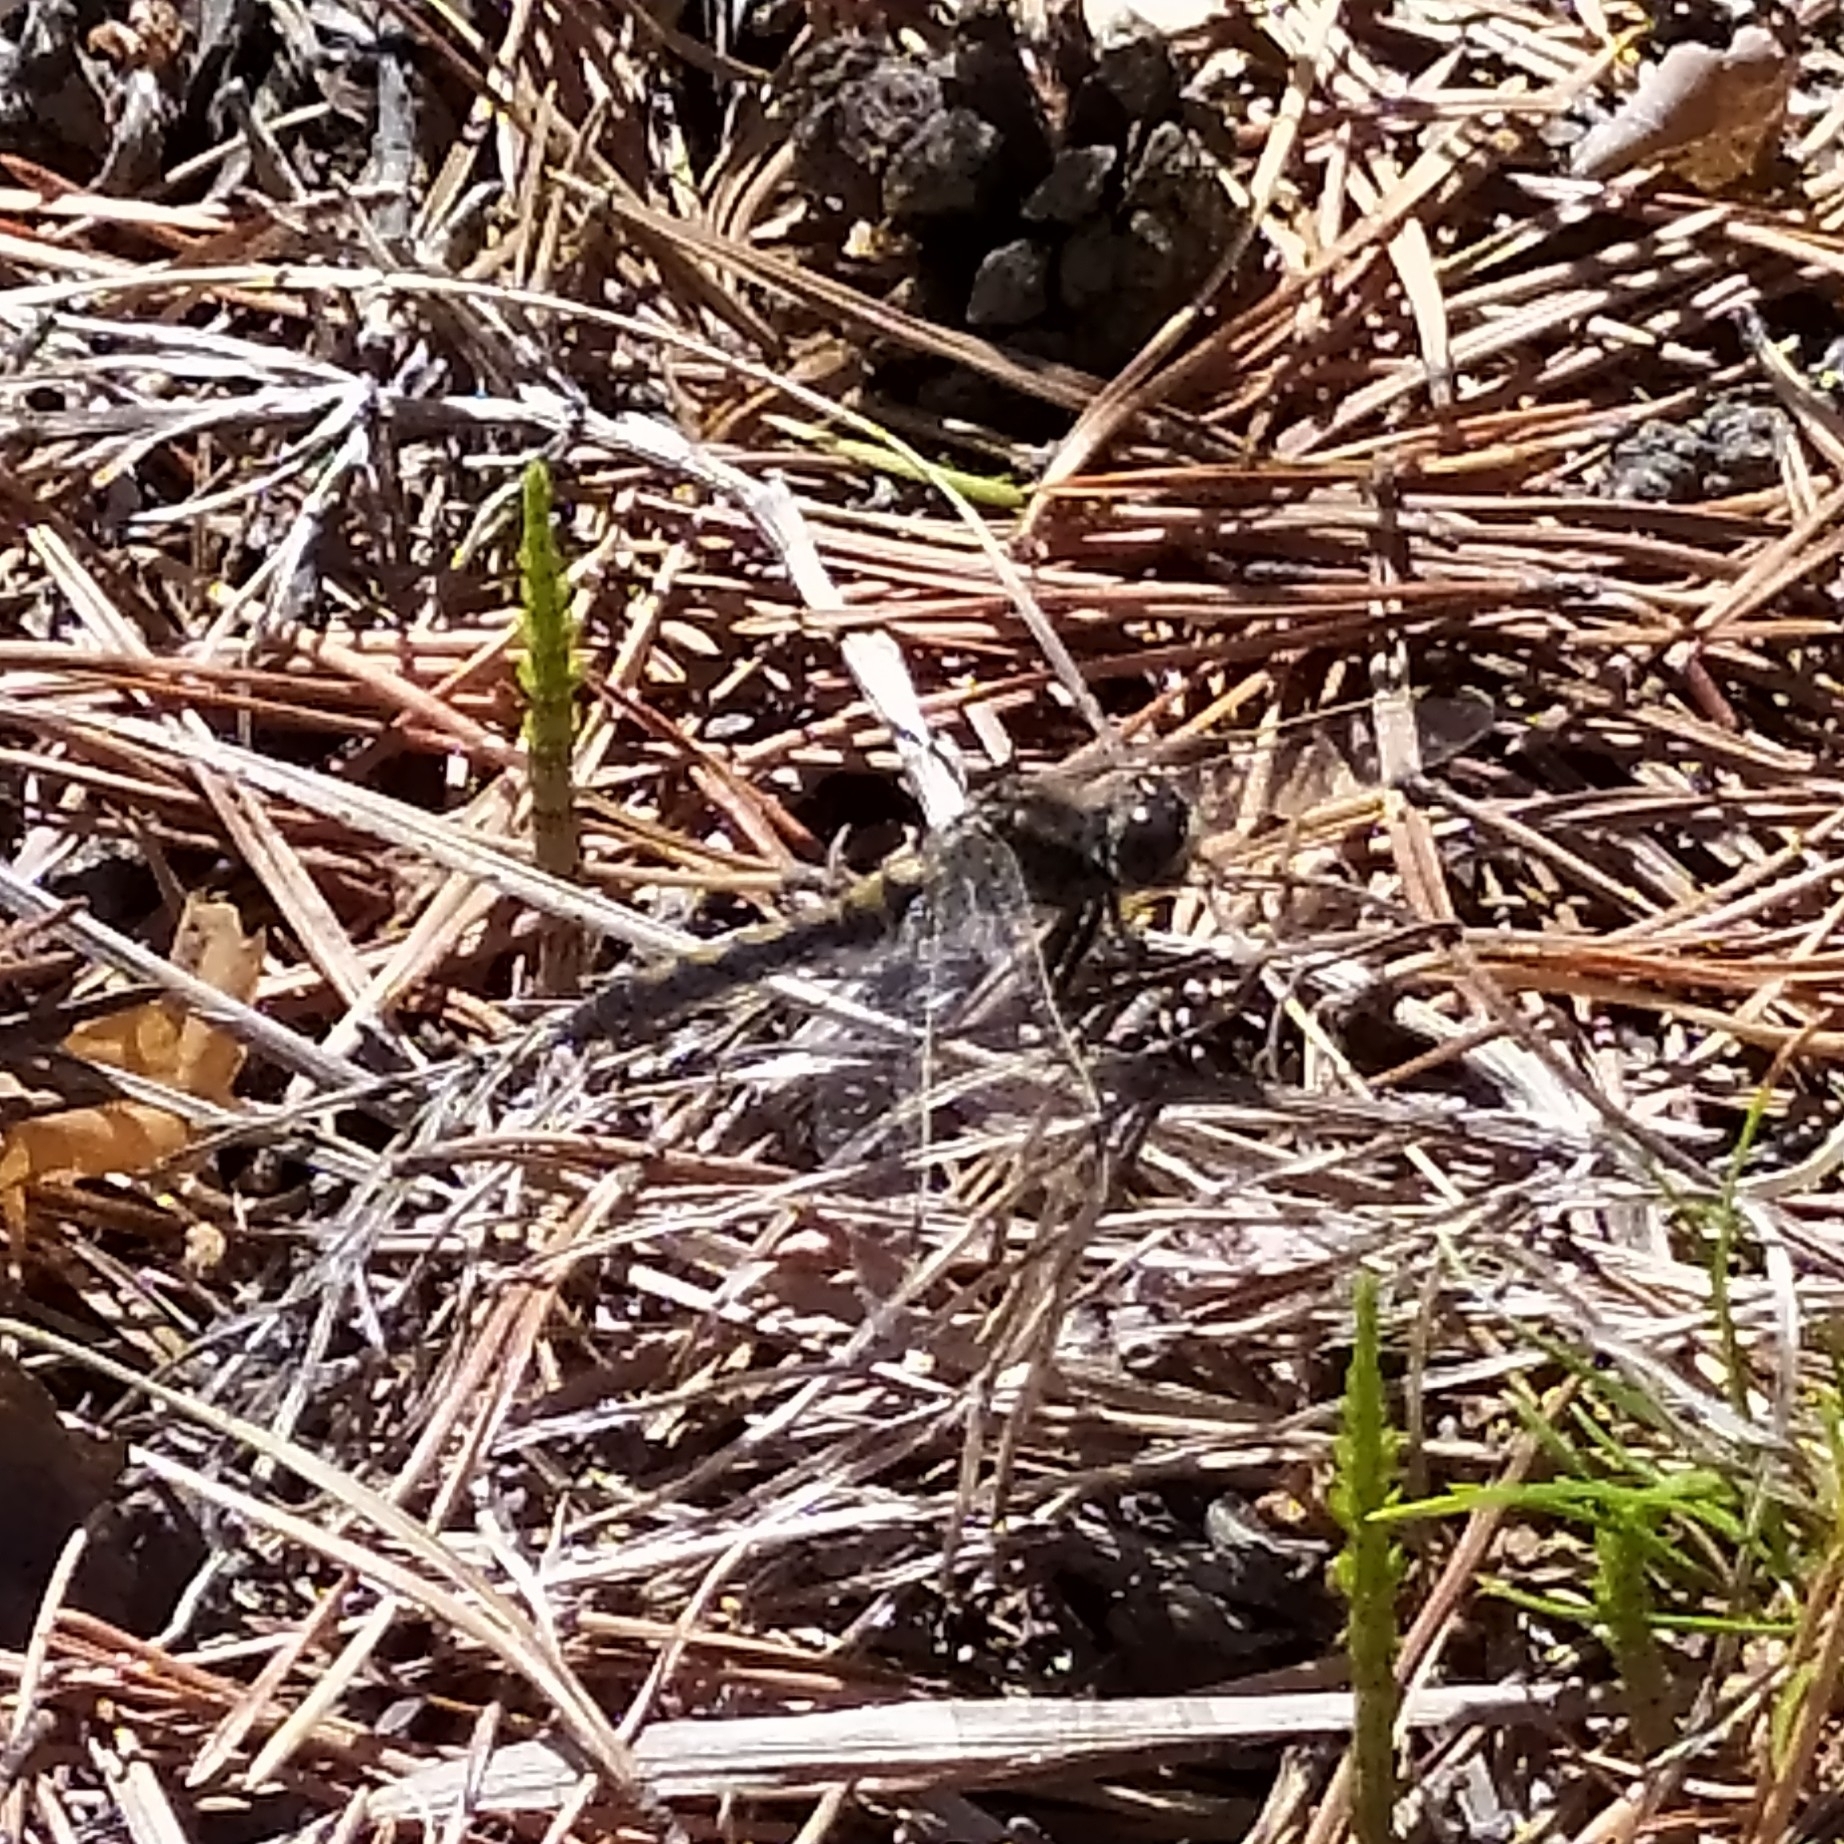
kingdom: Animalia
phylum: Arthropoda
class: Insecta
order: Odonata
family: Libellulidae
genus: Leucorrhinia
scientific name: Leucorrhinia rubicunda
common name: Ruby whiteface
